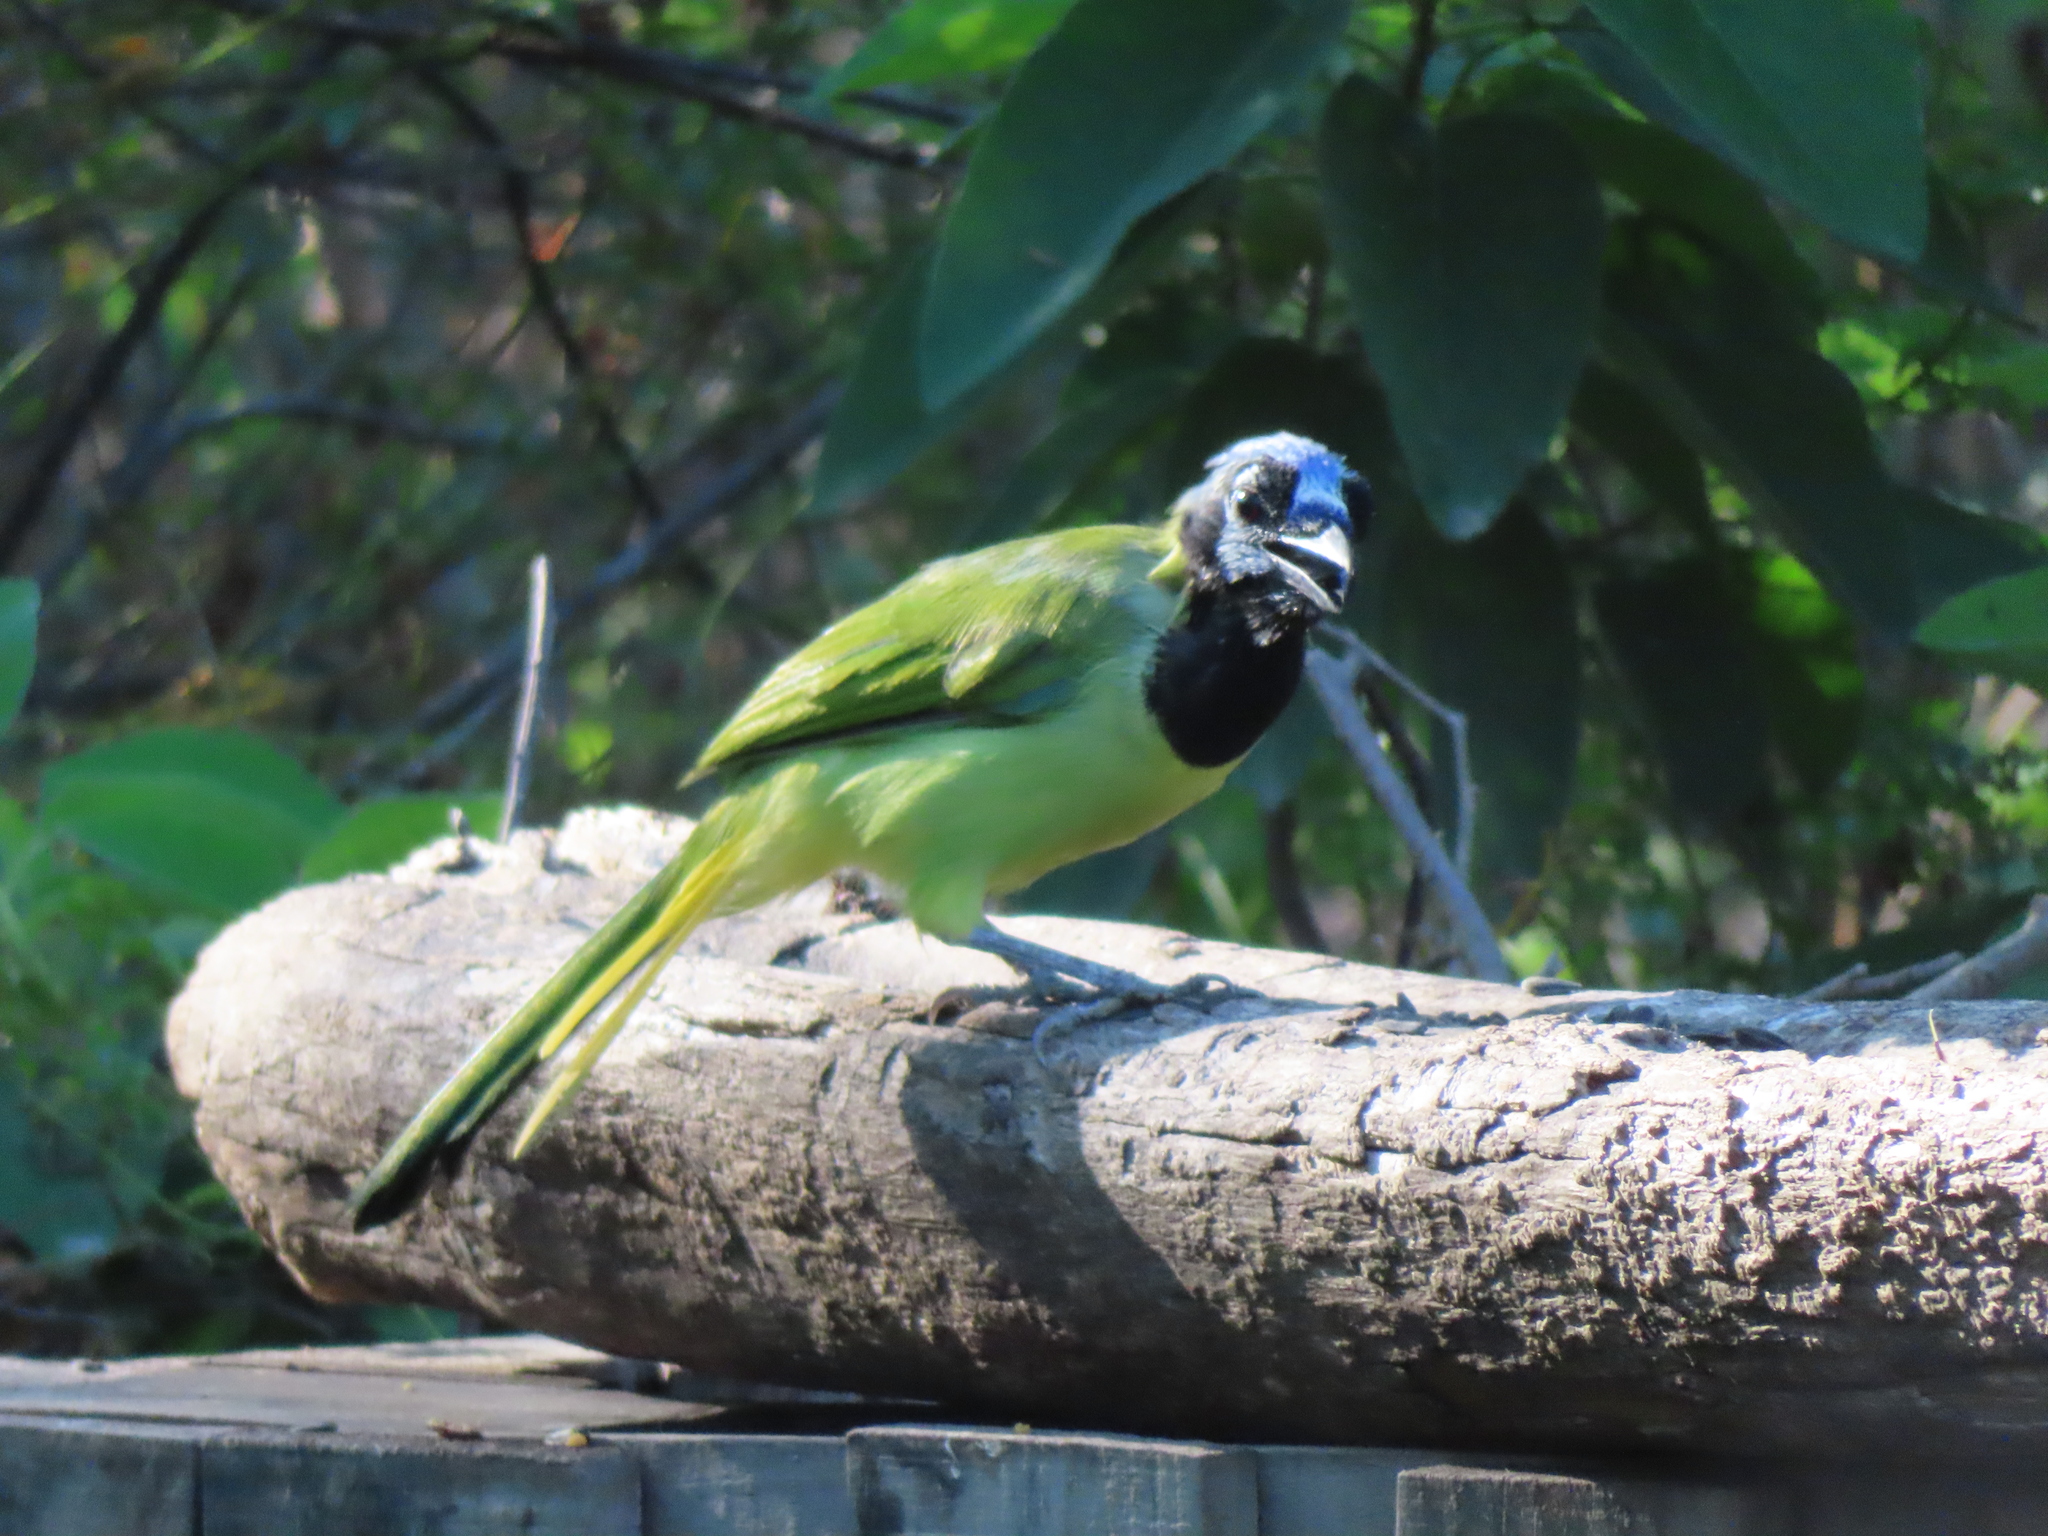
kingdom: Animalia
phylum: Chordata
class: Aves
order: Passeriformes
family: Corvidae
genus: Cyanocorax
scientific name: Cyanocorax yncas
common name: Green jay
